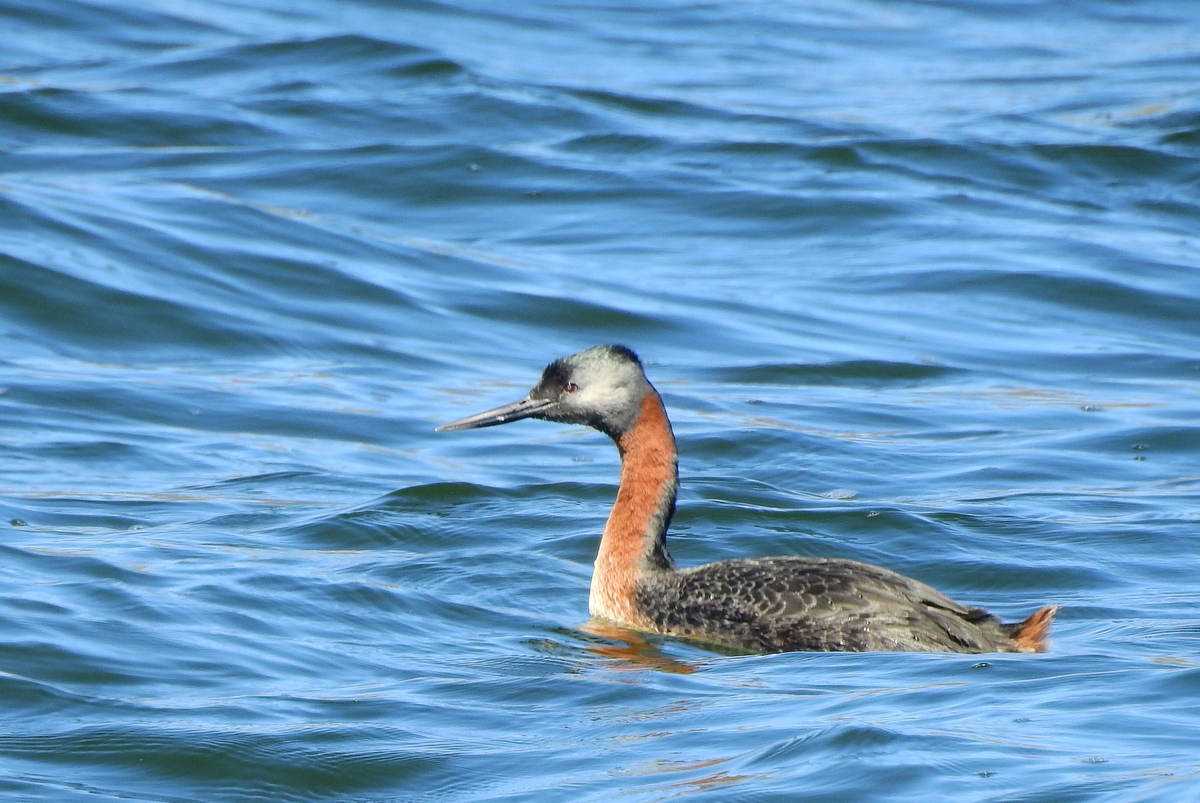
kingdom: Animalia
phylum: Chordata
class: Aves
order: Podicipediformes
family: Podicipedidae
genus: Podiceps
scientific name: Podiceps major
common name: Great grebe
